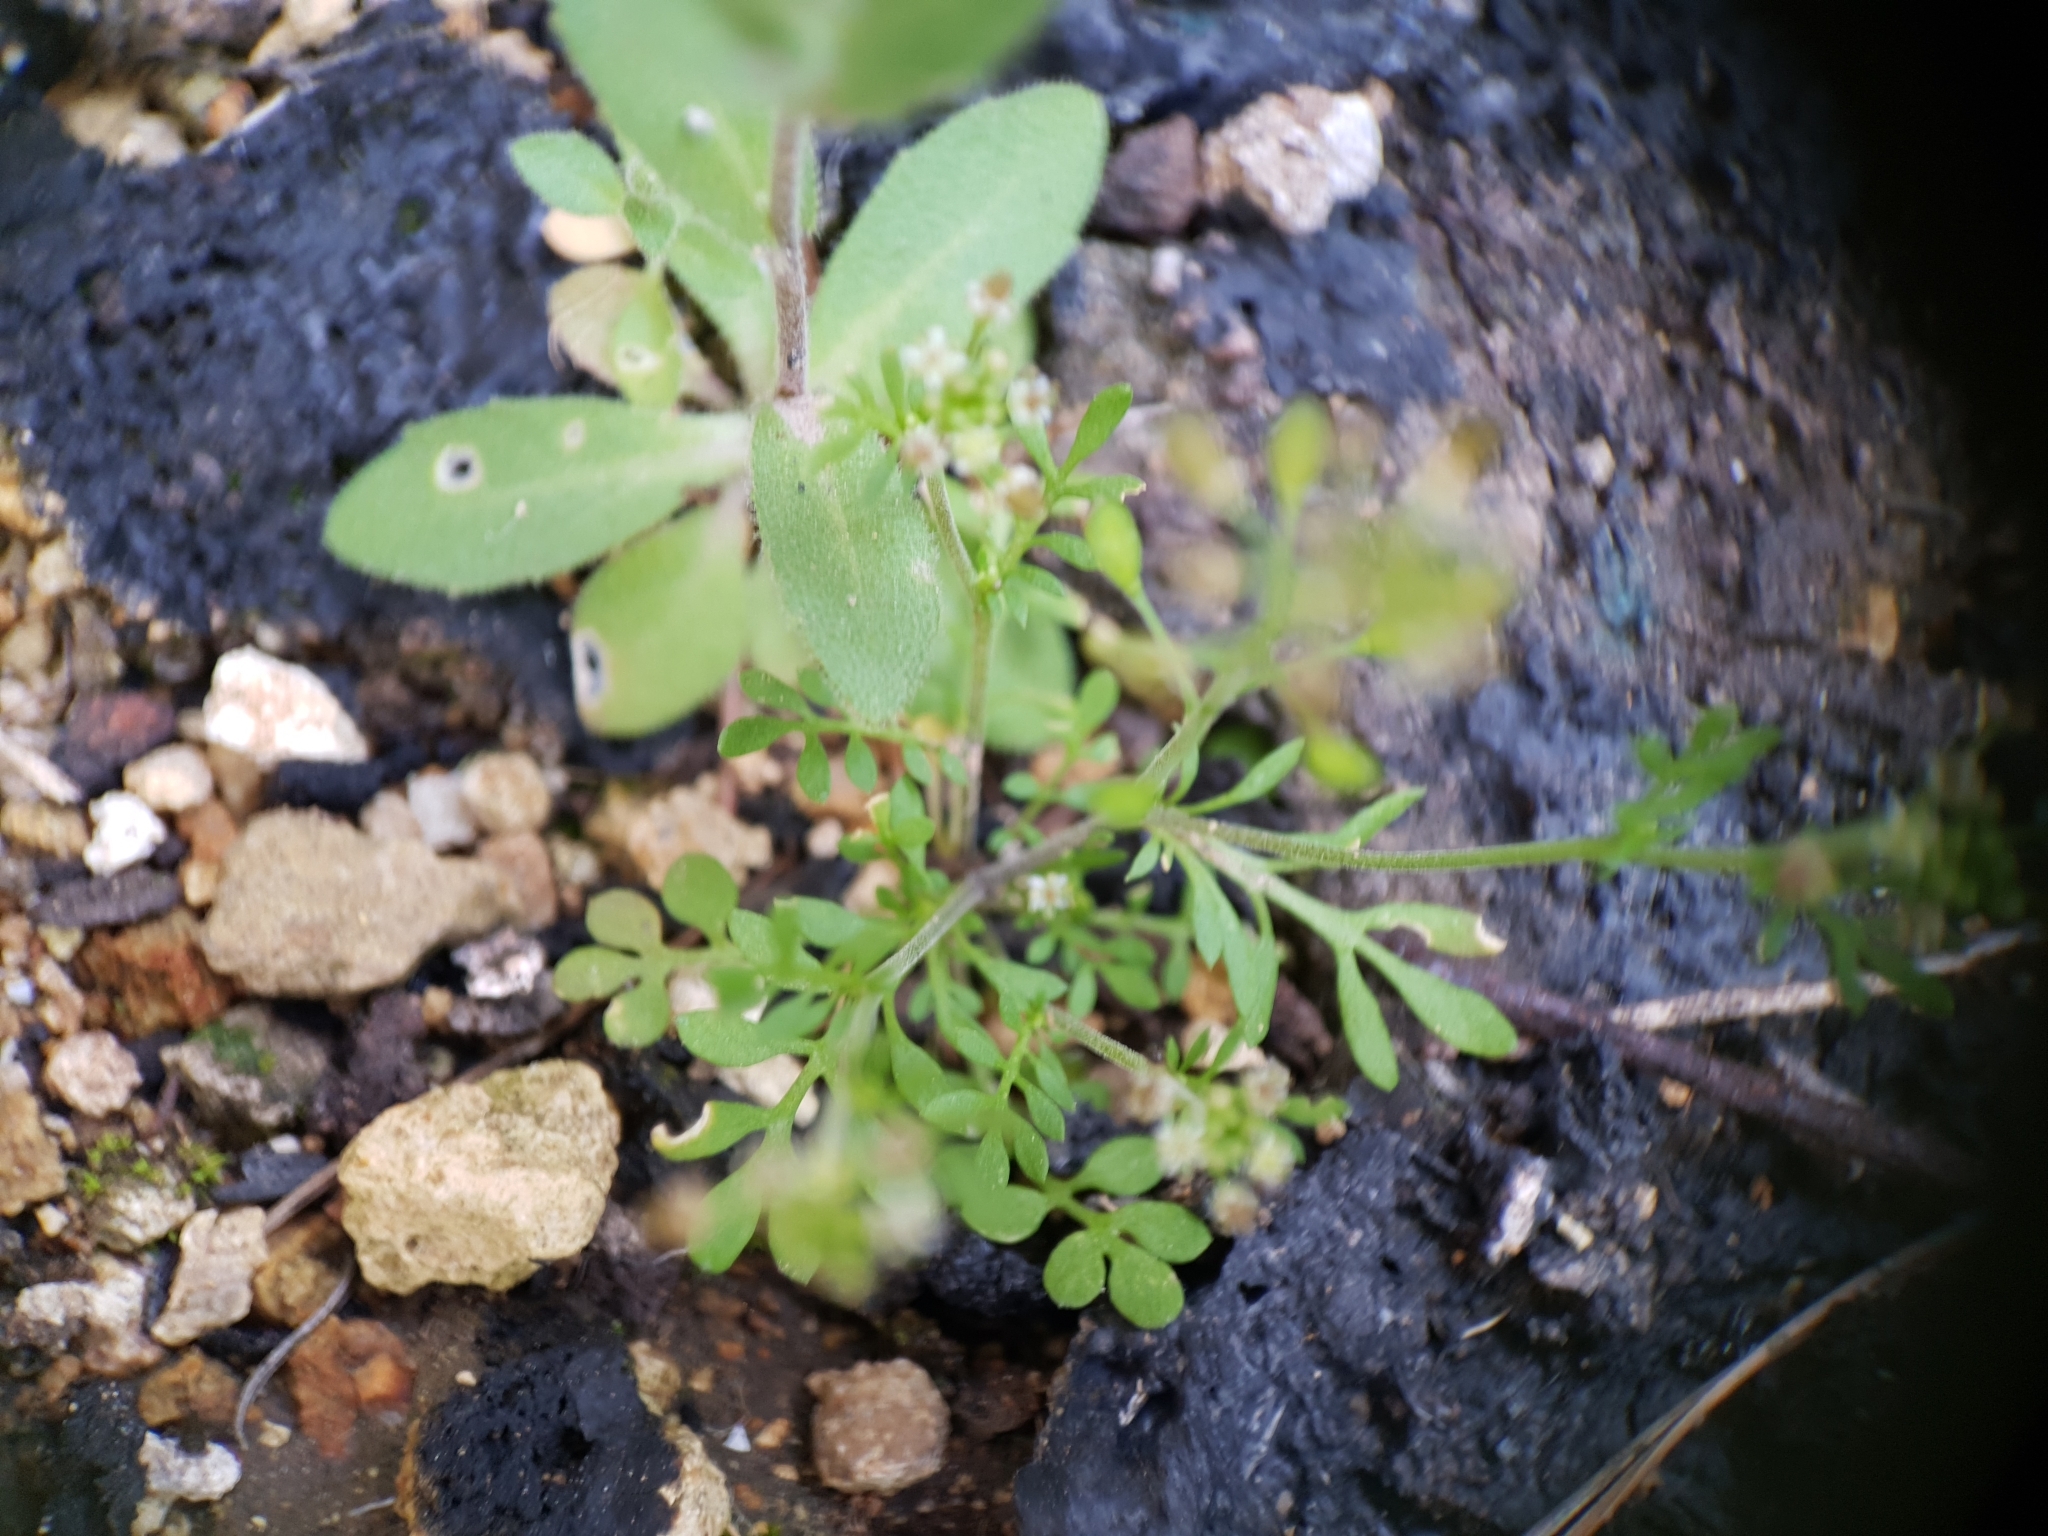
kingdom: Plantae
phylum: Tracheophyta
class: Magnoliopsida
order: Brassicales
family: Brassicaceae
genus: Hornungia
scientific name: Hornungia petraea
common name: Hutchinsia
